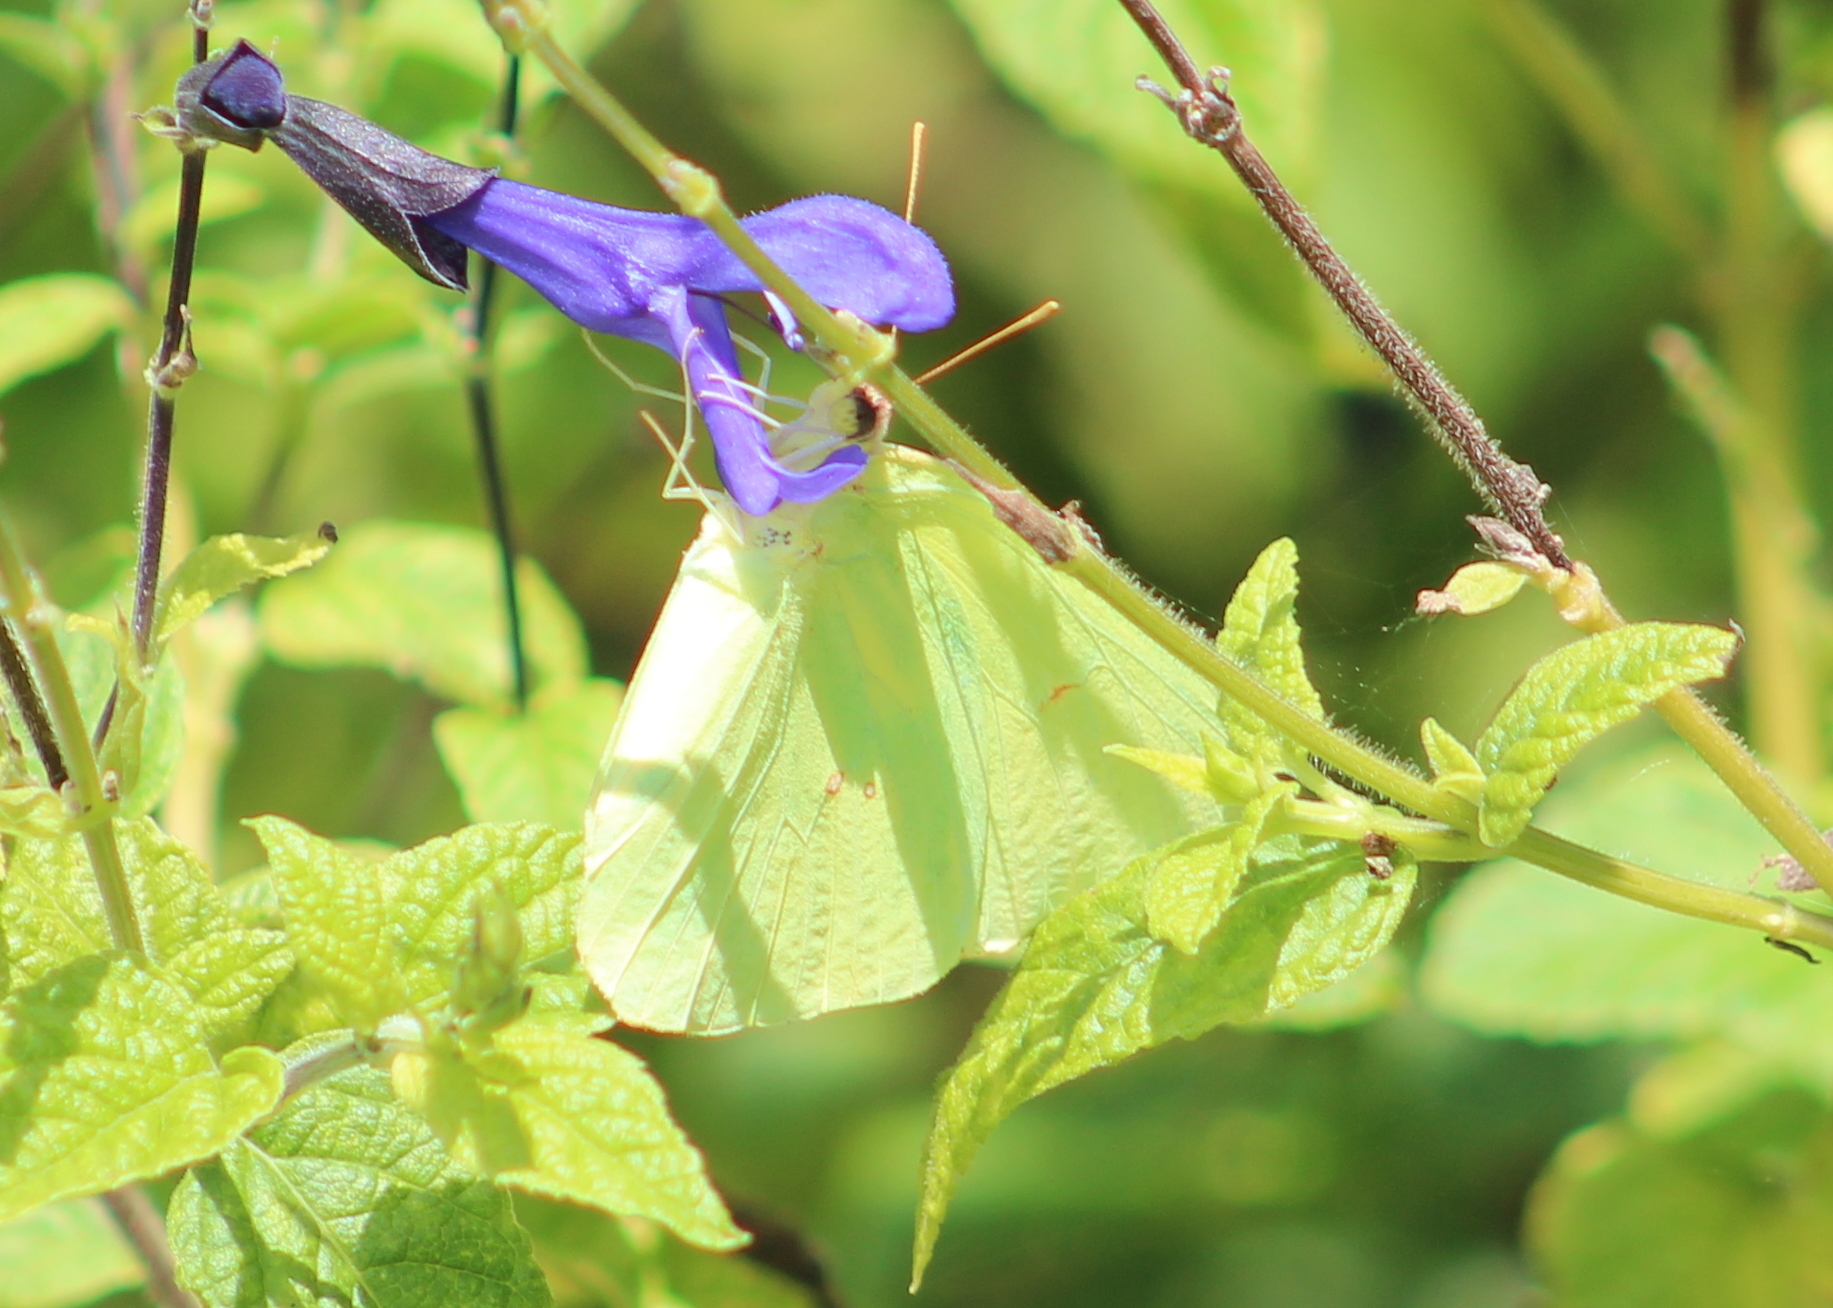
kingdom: Animalia
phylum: Arthropoda
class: Insecta
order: Lepidoptera
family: Pieridae
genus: Phoebis
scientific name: Phoebis sennae
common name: Cloudless sulphur
